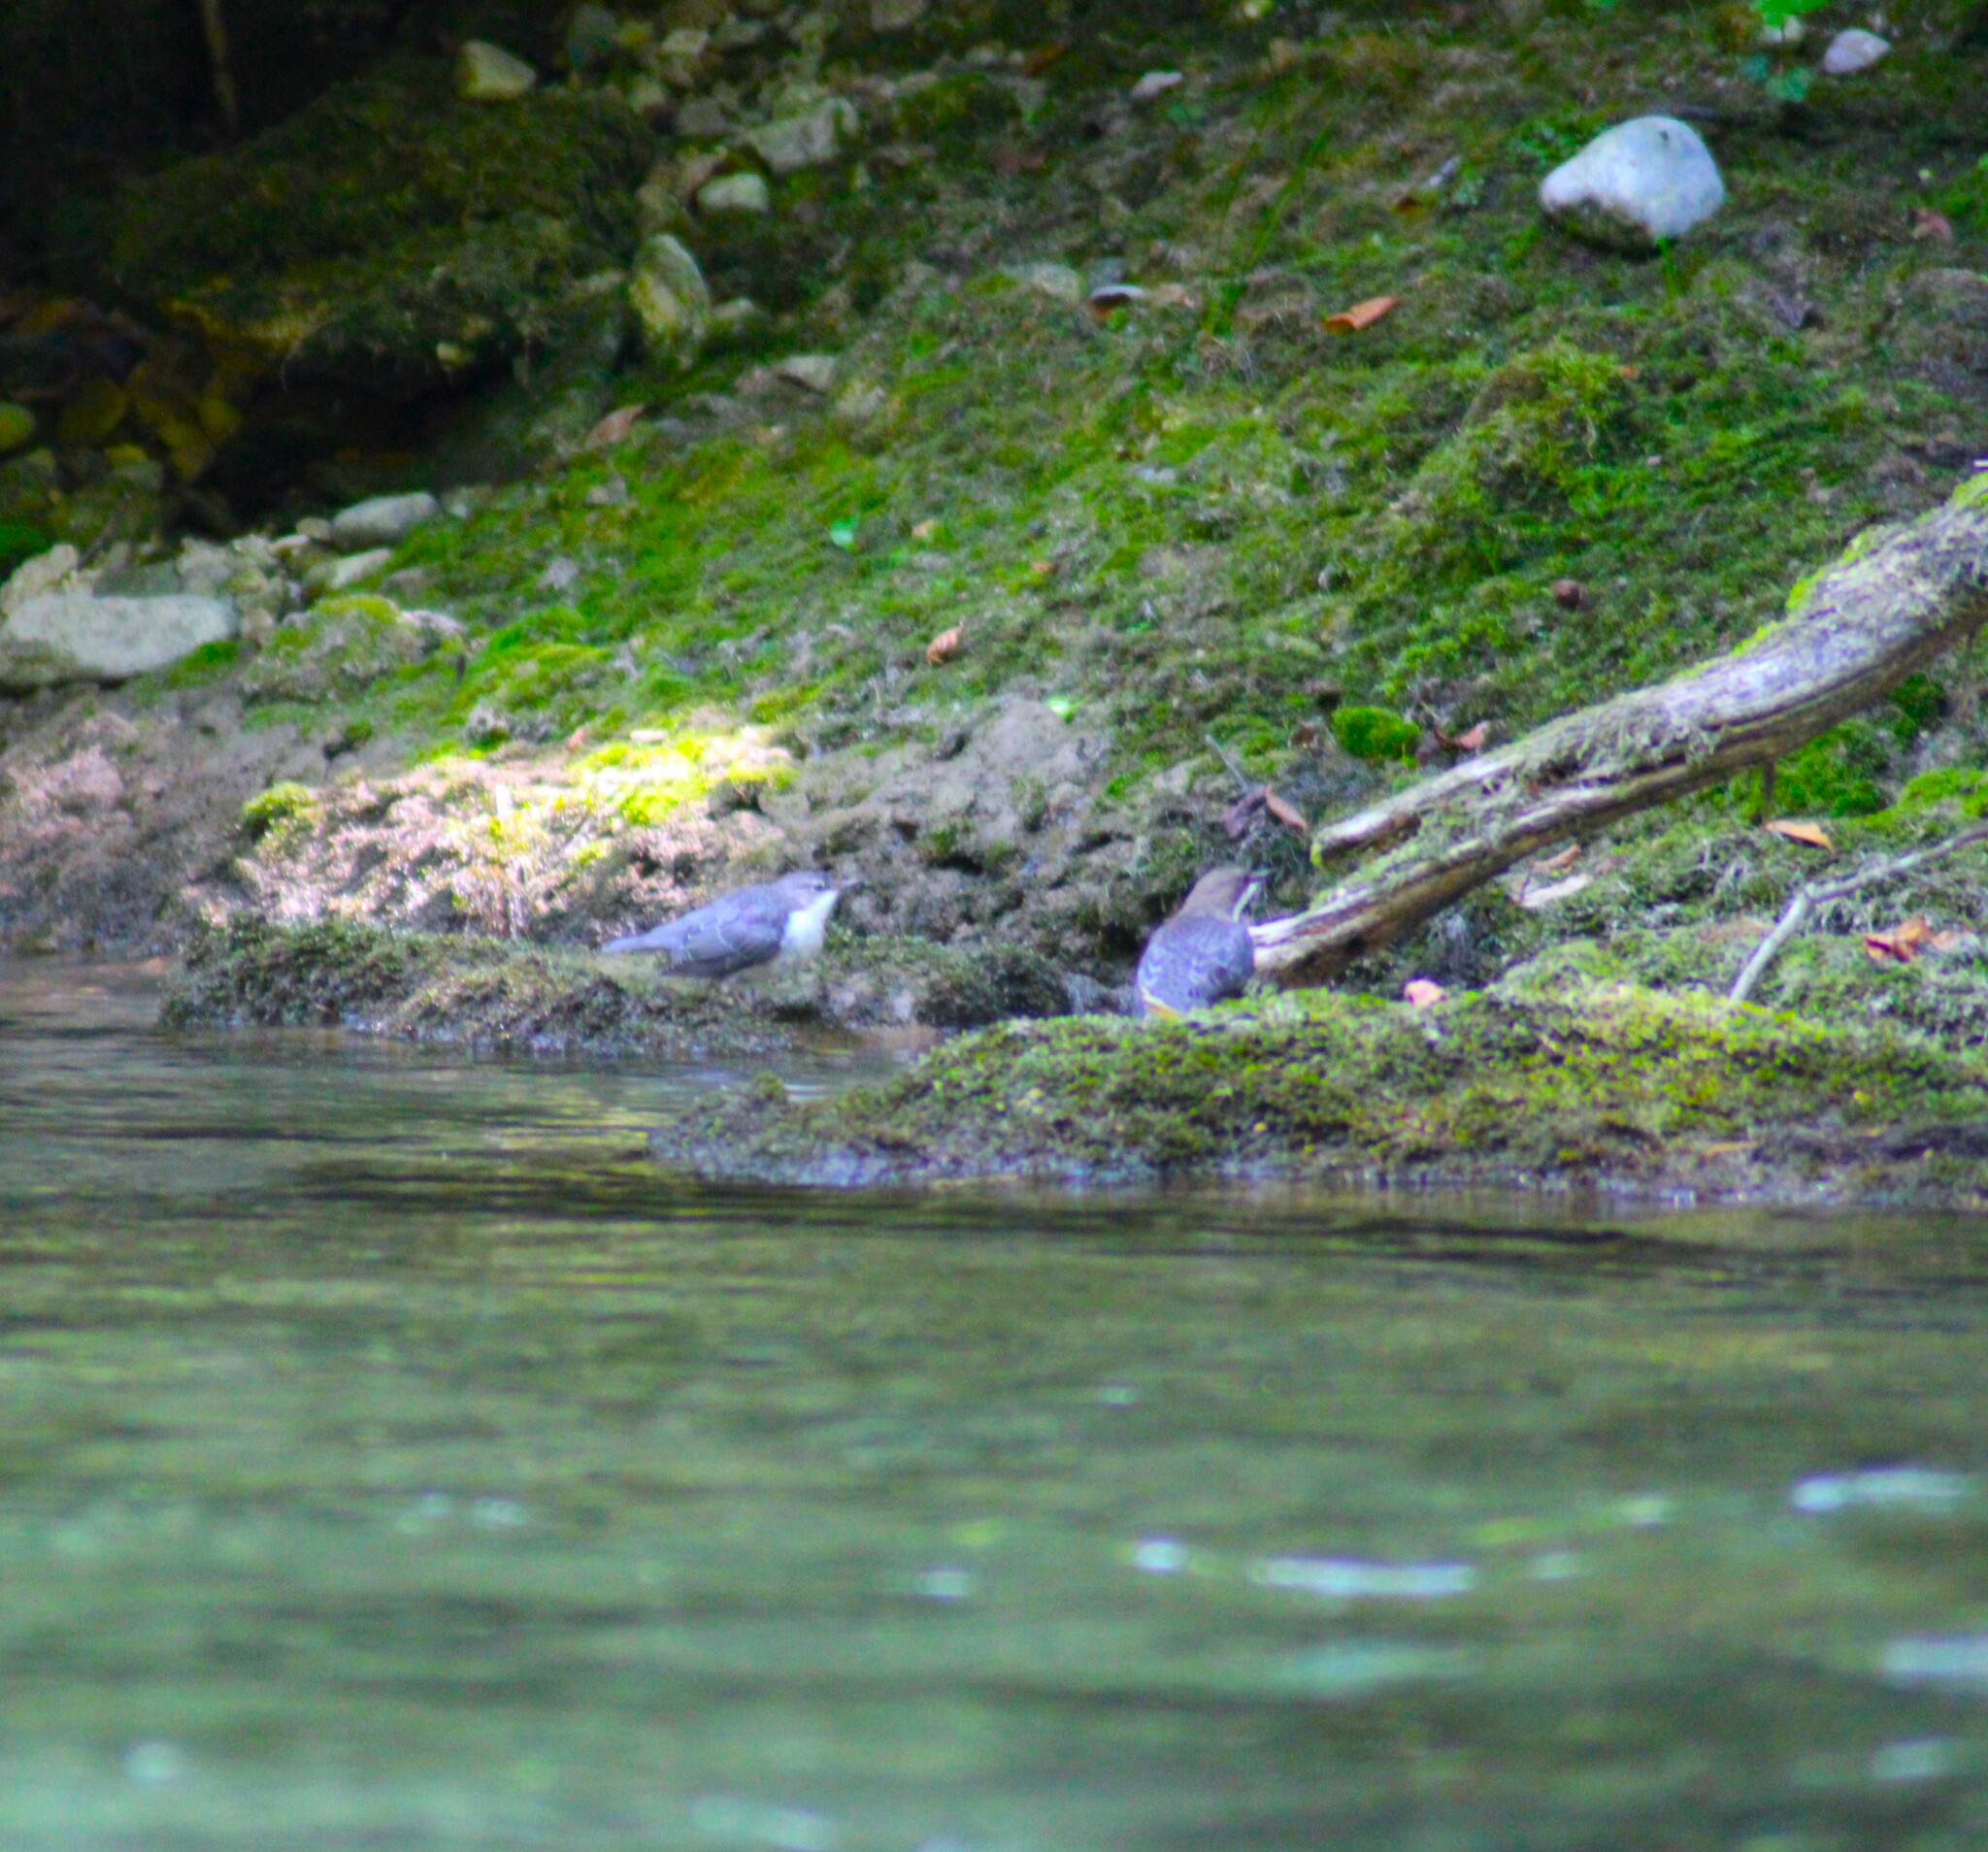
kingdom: Animalia
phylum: Chordata
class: Aves
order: Passeriformes
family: Cinclidae
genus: Cinclus
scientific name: Cinclus cinclus
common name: White-throated dipper
